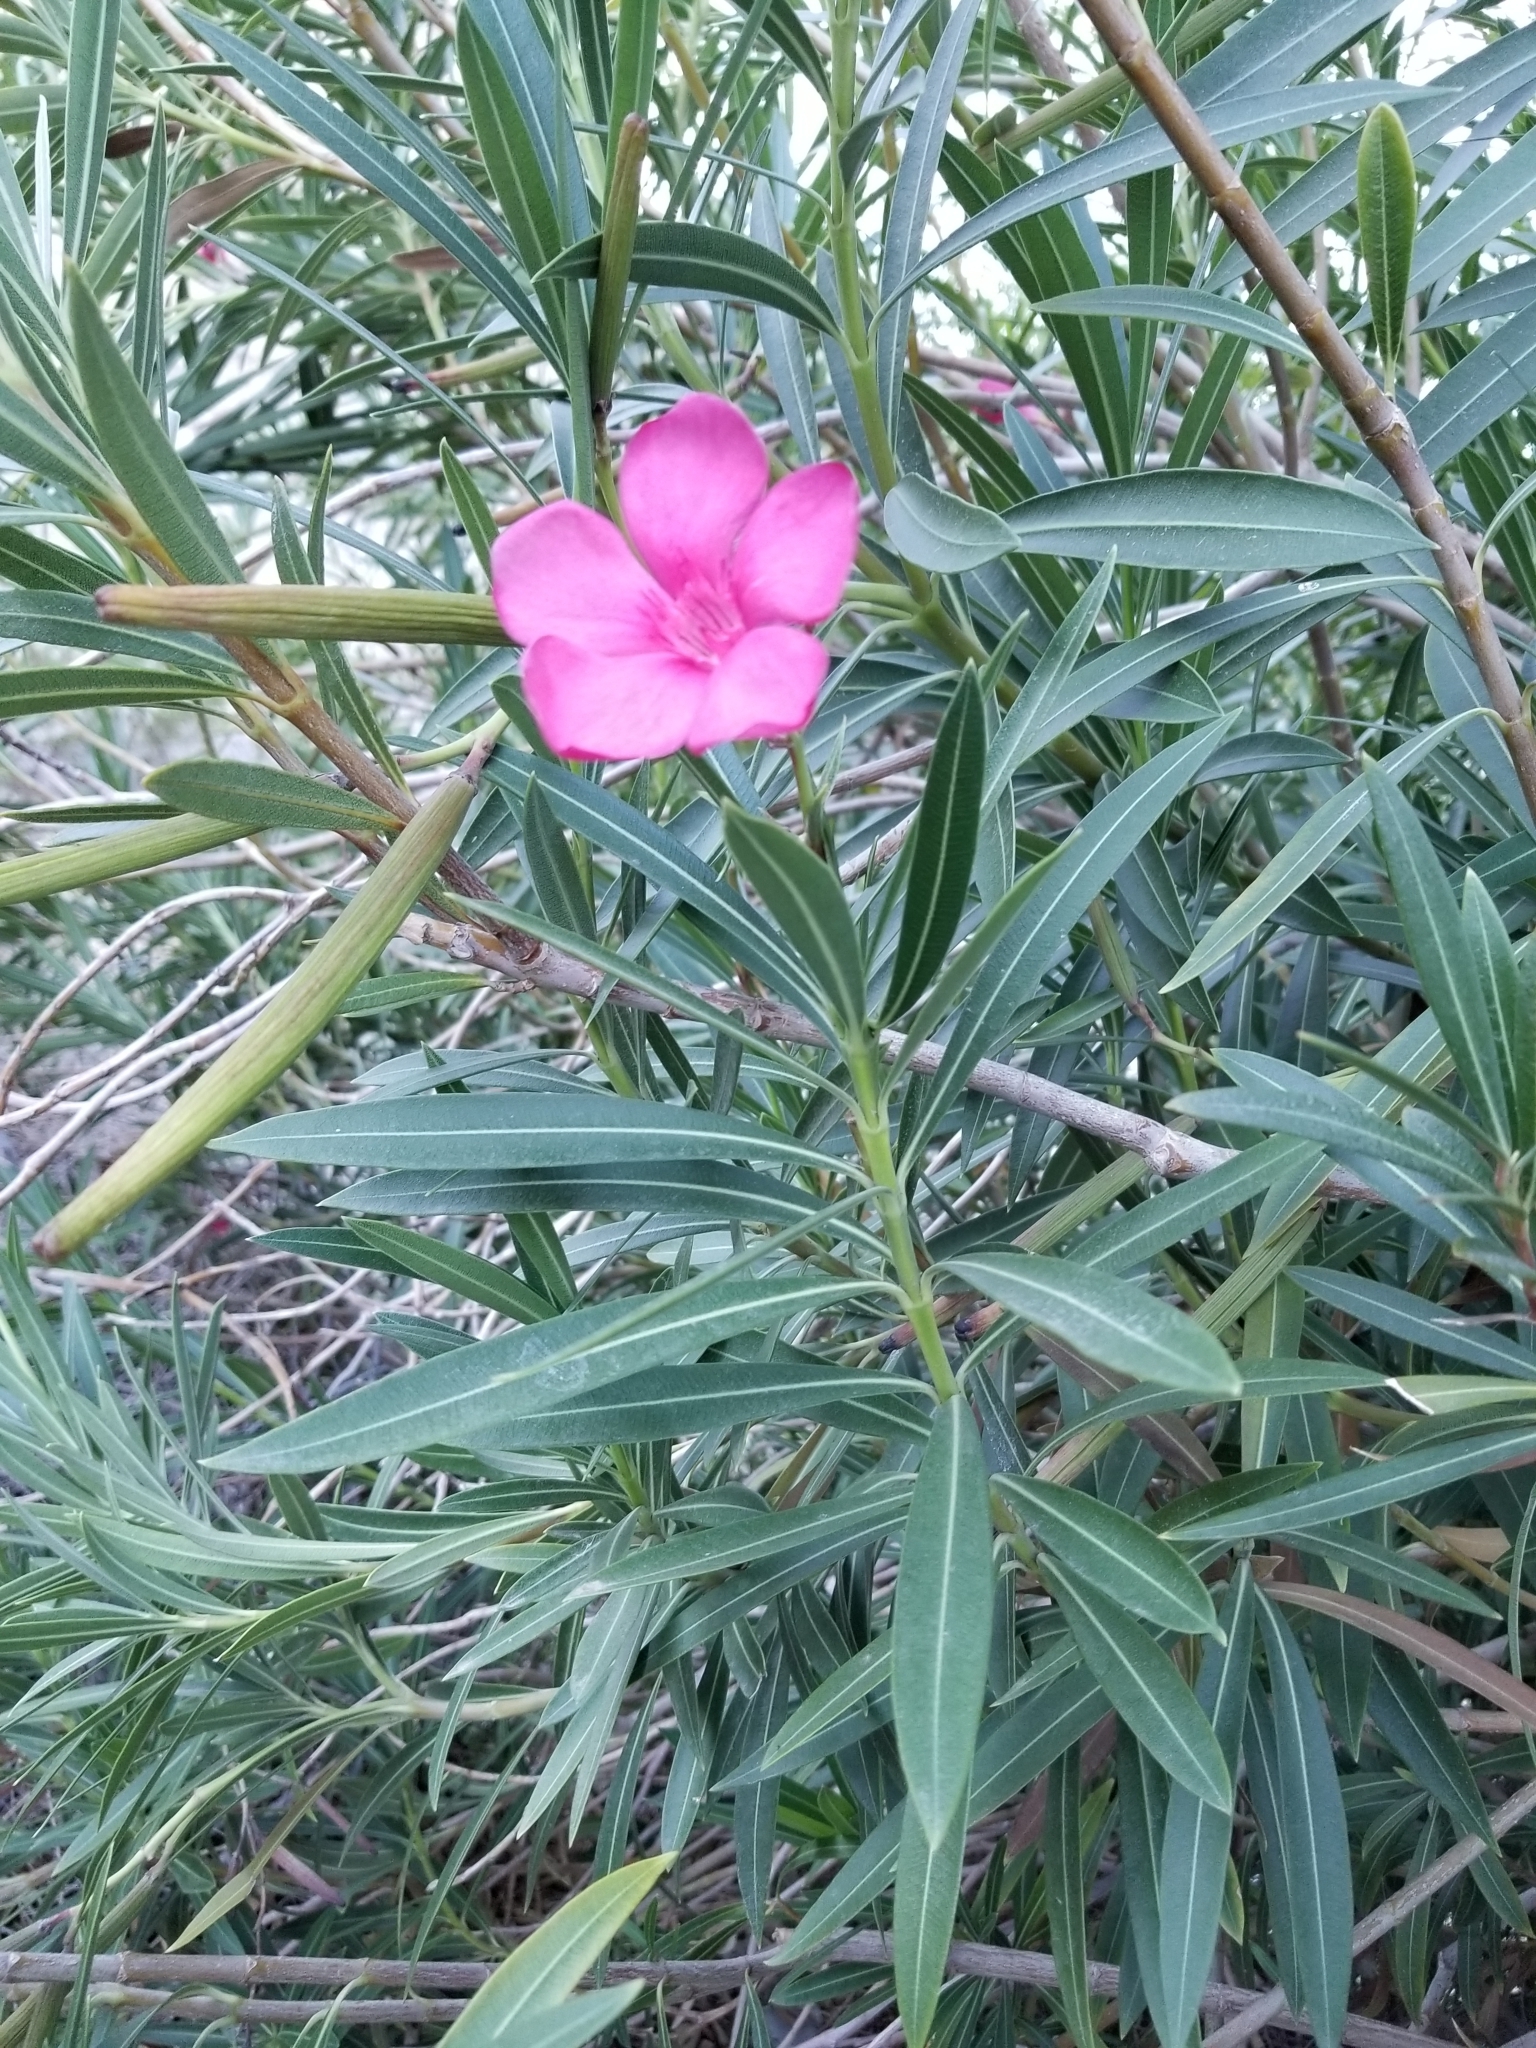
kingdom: Plantae
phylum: Tracheophyta
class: Magnoliopsida
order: Gentianales
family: Apocynaceae
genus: Nerium
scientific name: Nerium oleander
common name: Oleander
